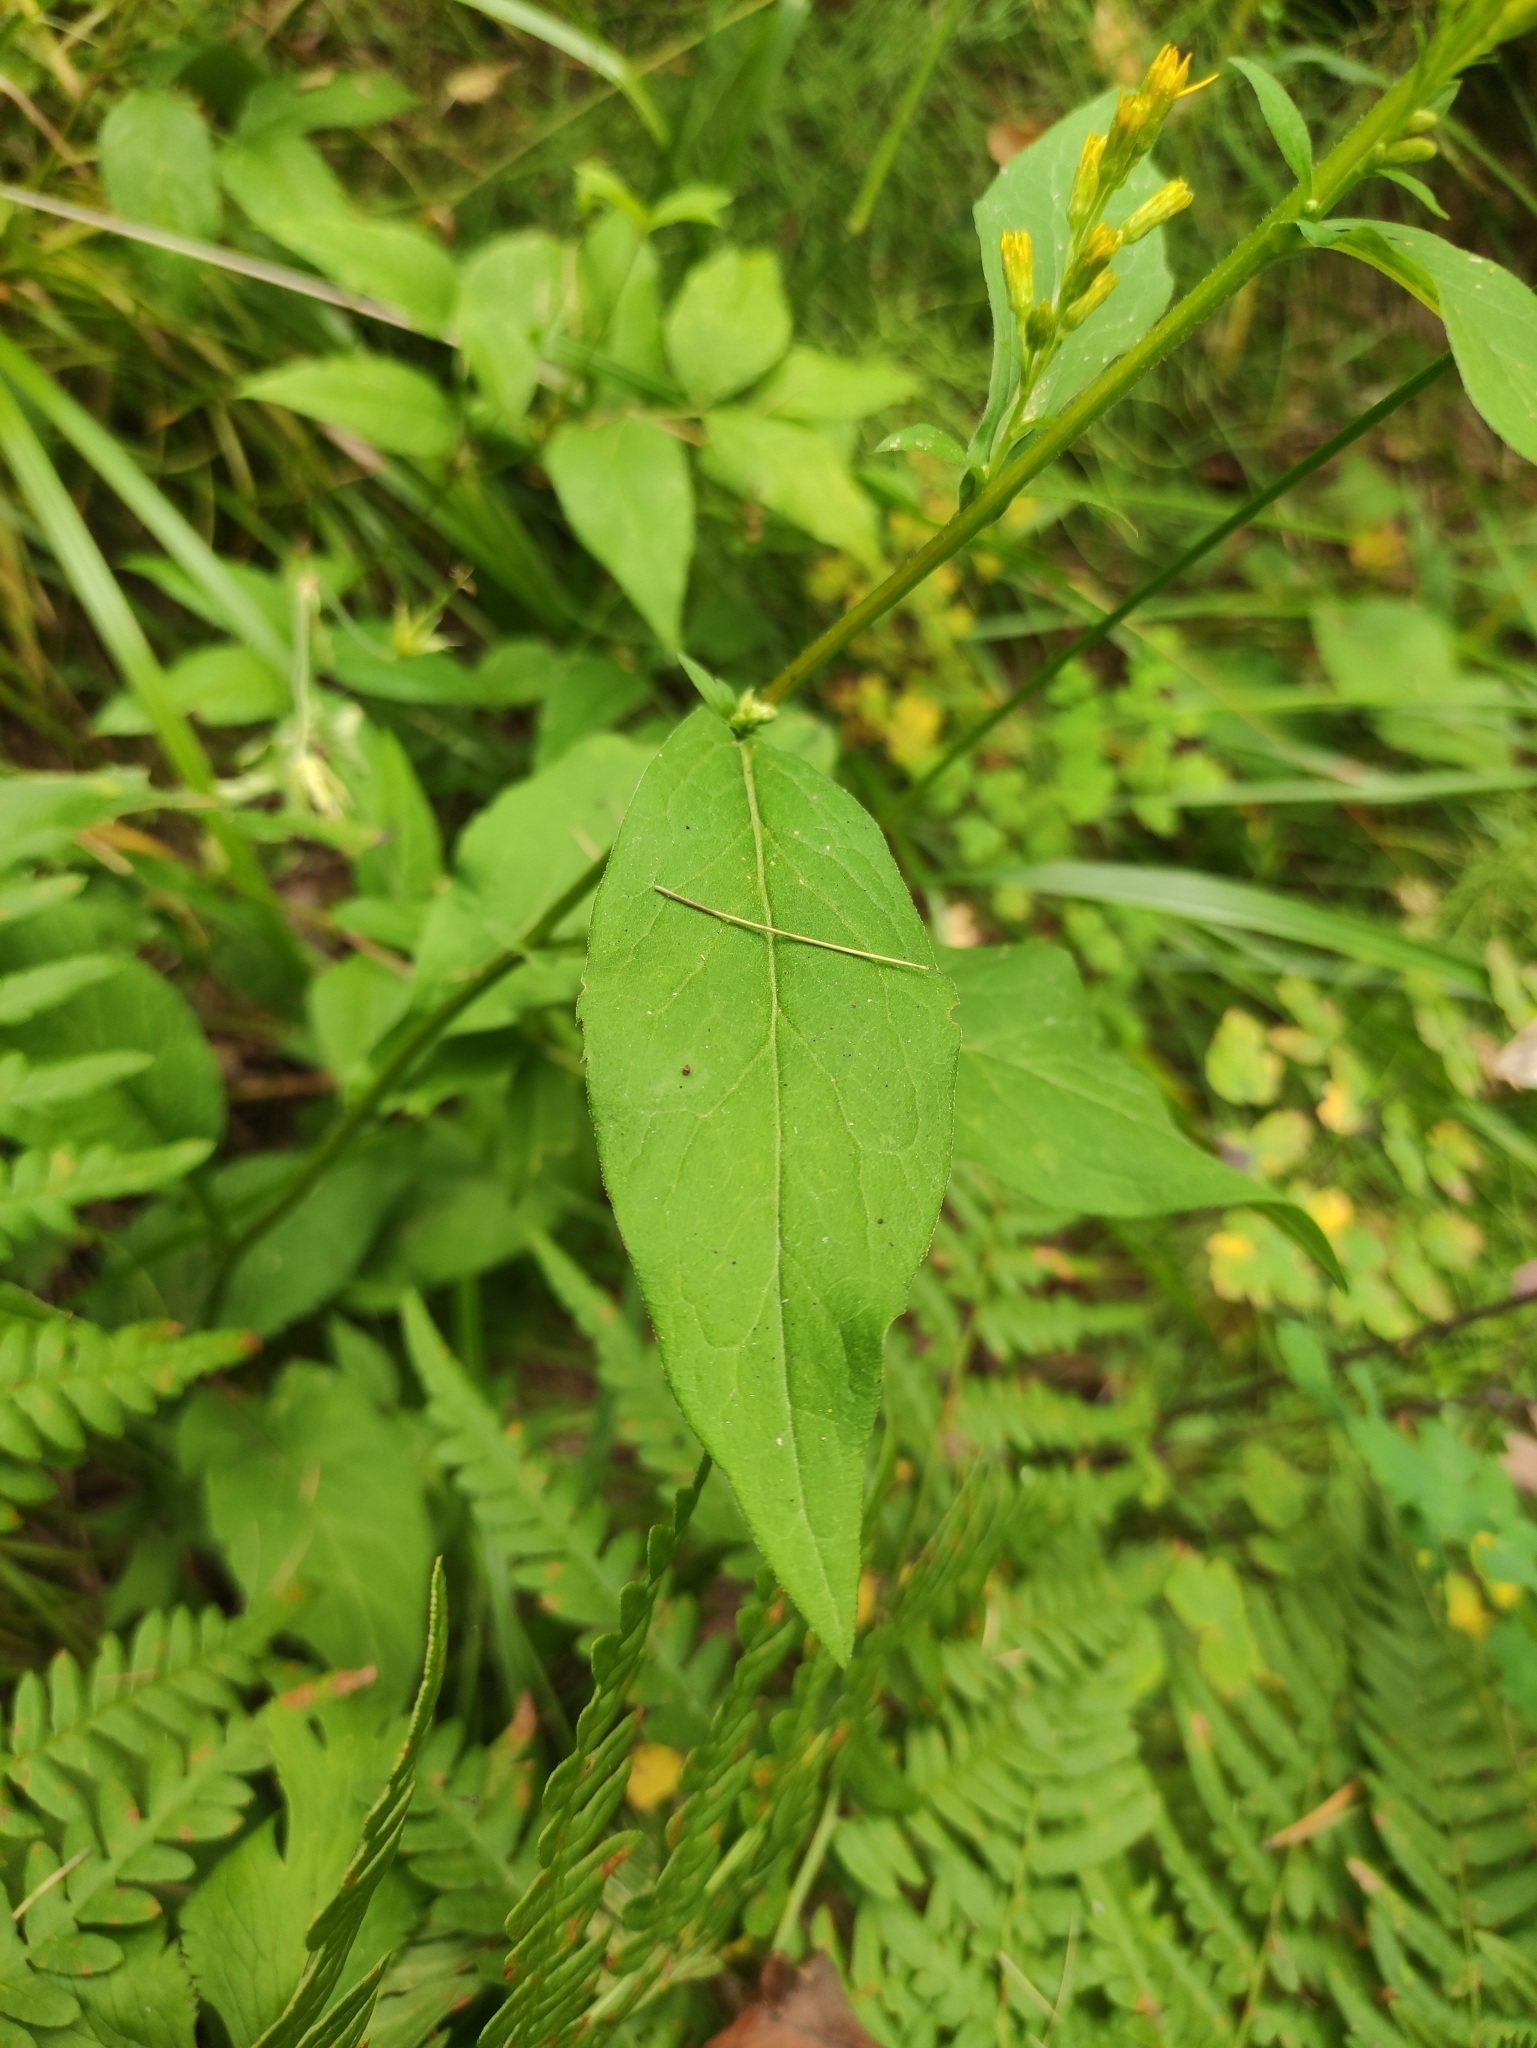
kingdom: Plantae
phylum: Tracheophyta
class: Magnoliopsida
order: Asterales
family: Asteraceae
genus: Solidago
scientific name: Solidago dahurica
